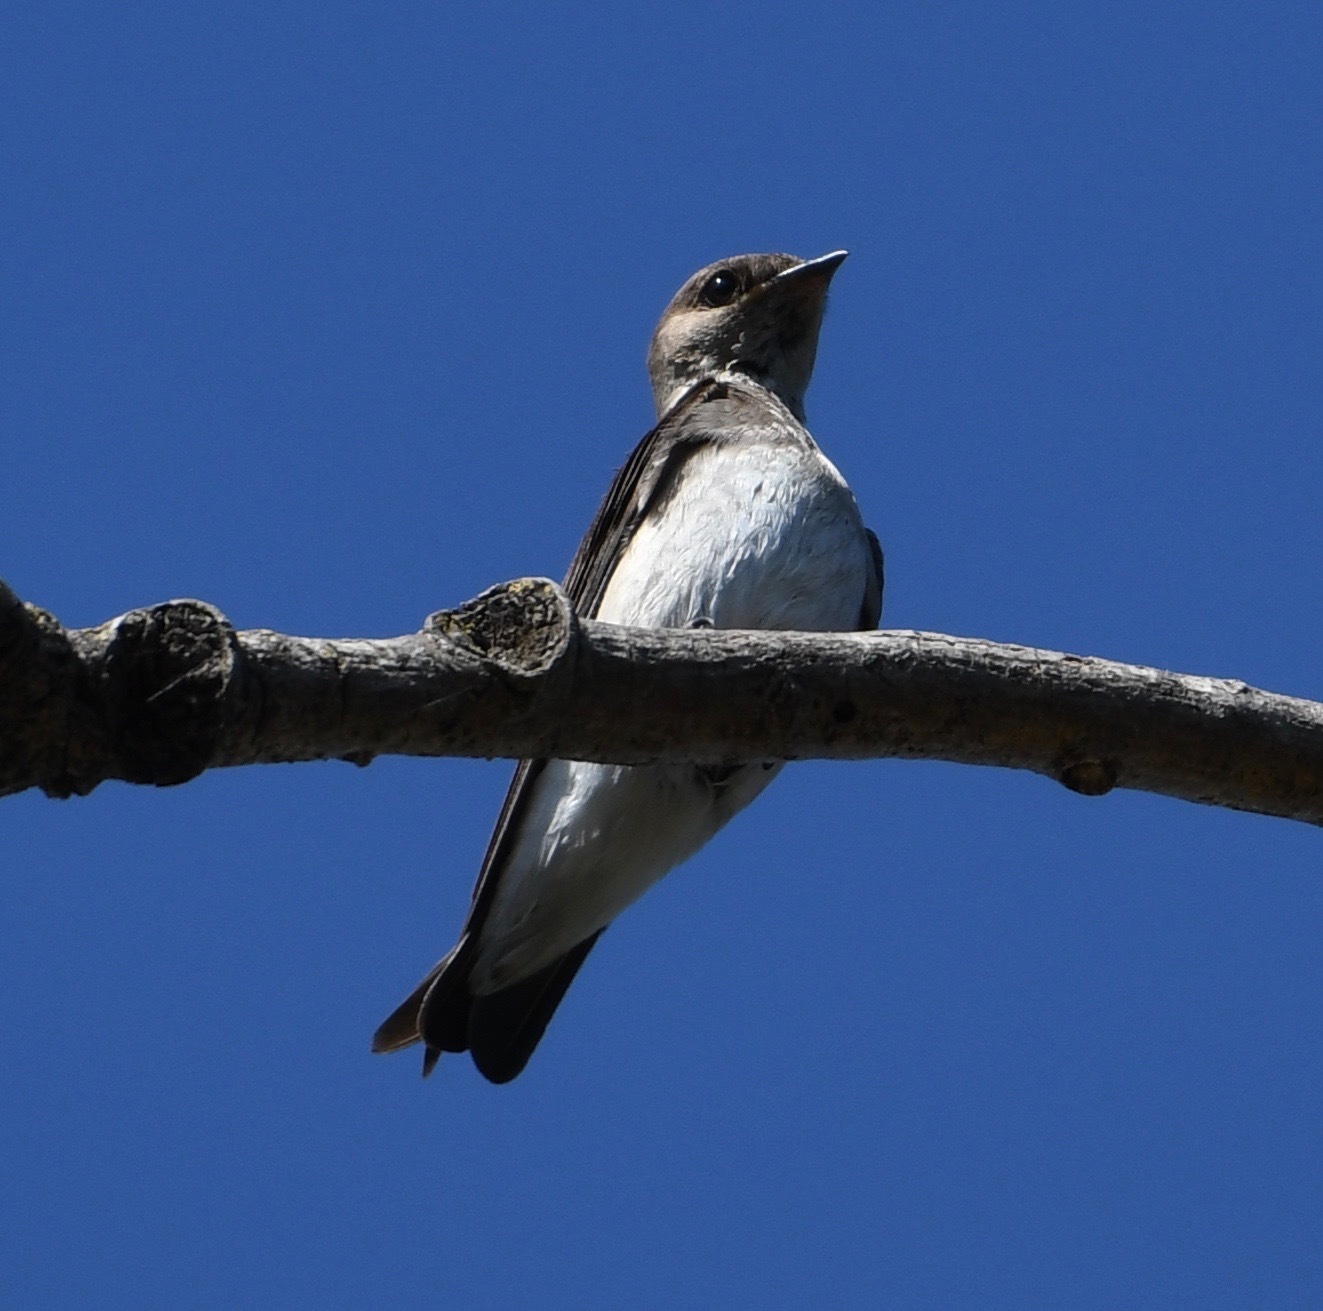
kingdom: Animalia
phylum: Chordata
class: Aves
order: Passeriformes
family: Hirundinidae
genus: Stelgidopteryx
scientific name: Stelgidopteryx serripennis
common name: Northern rough-winged swallow
